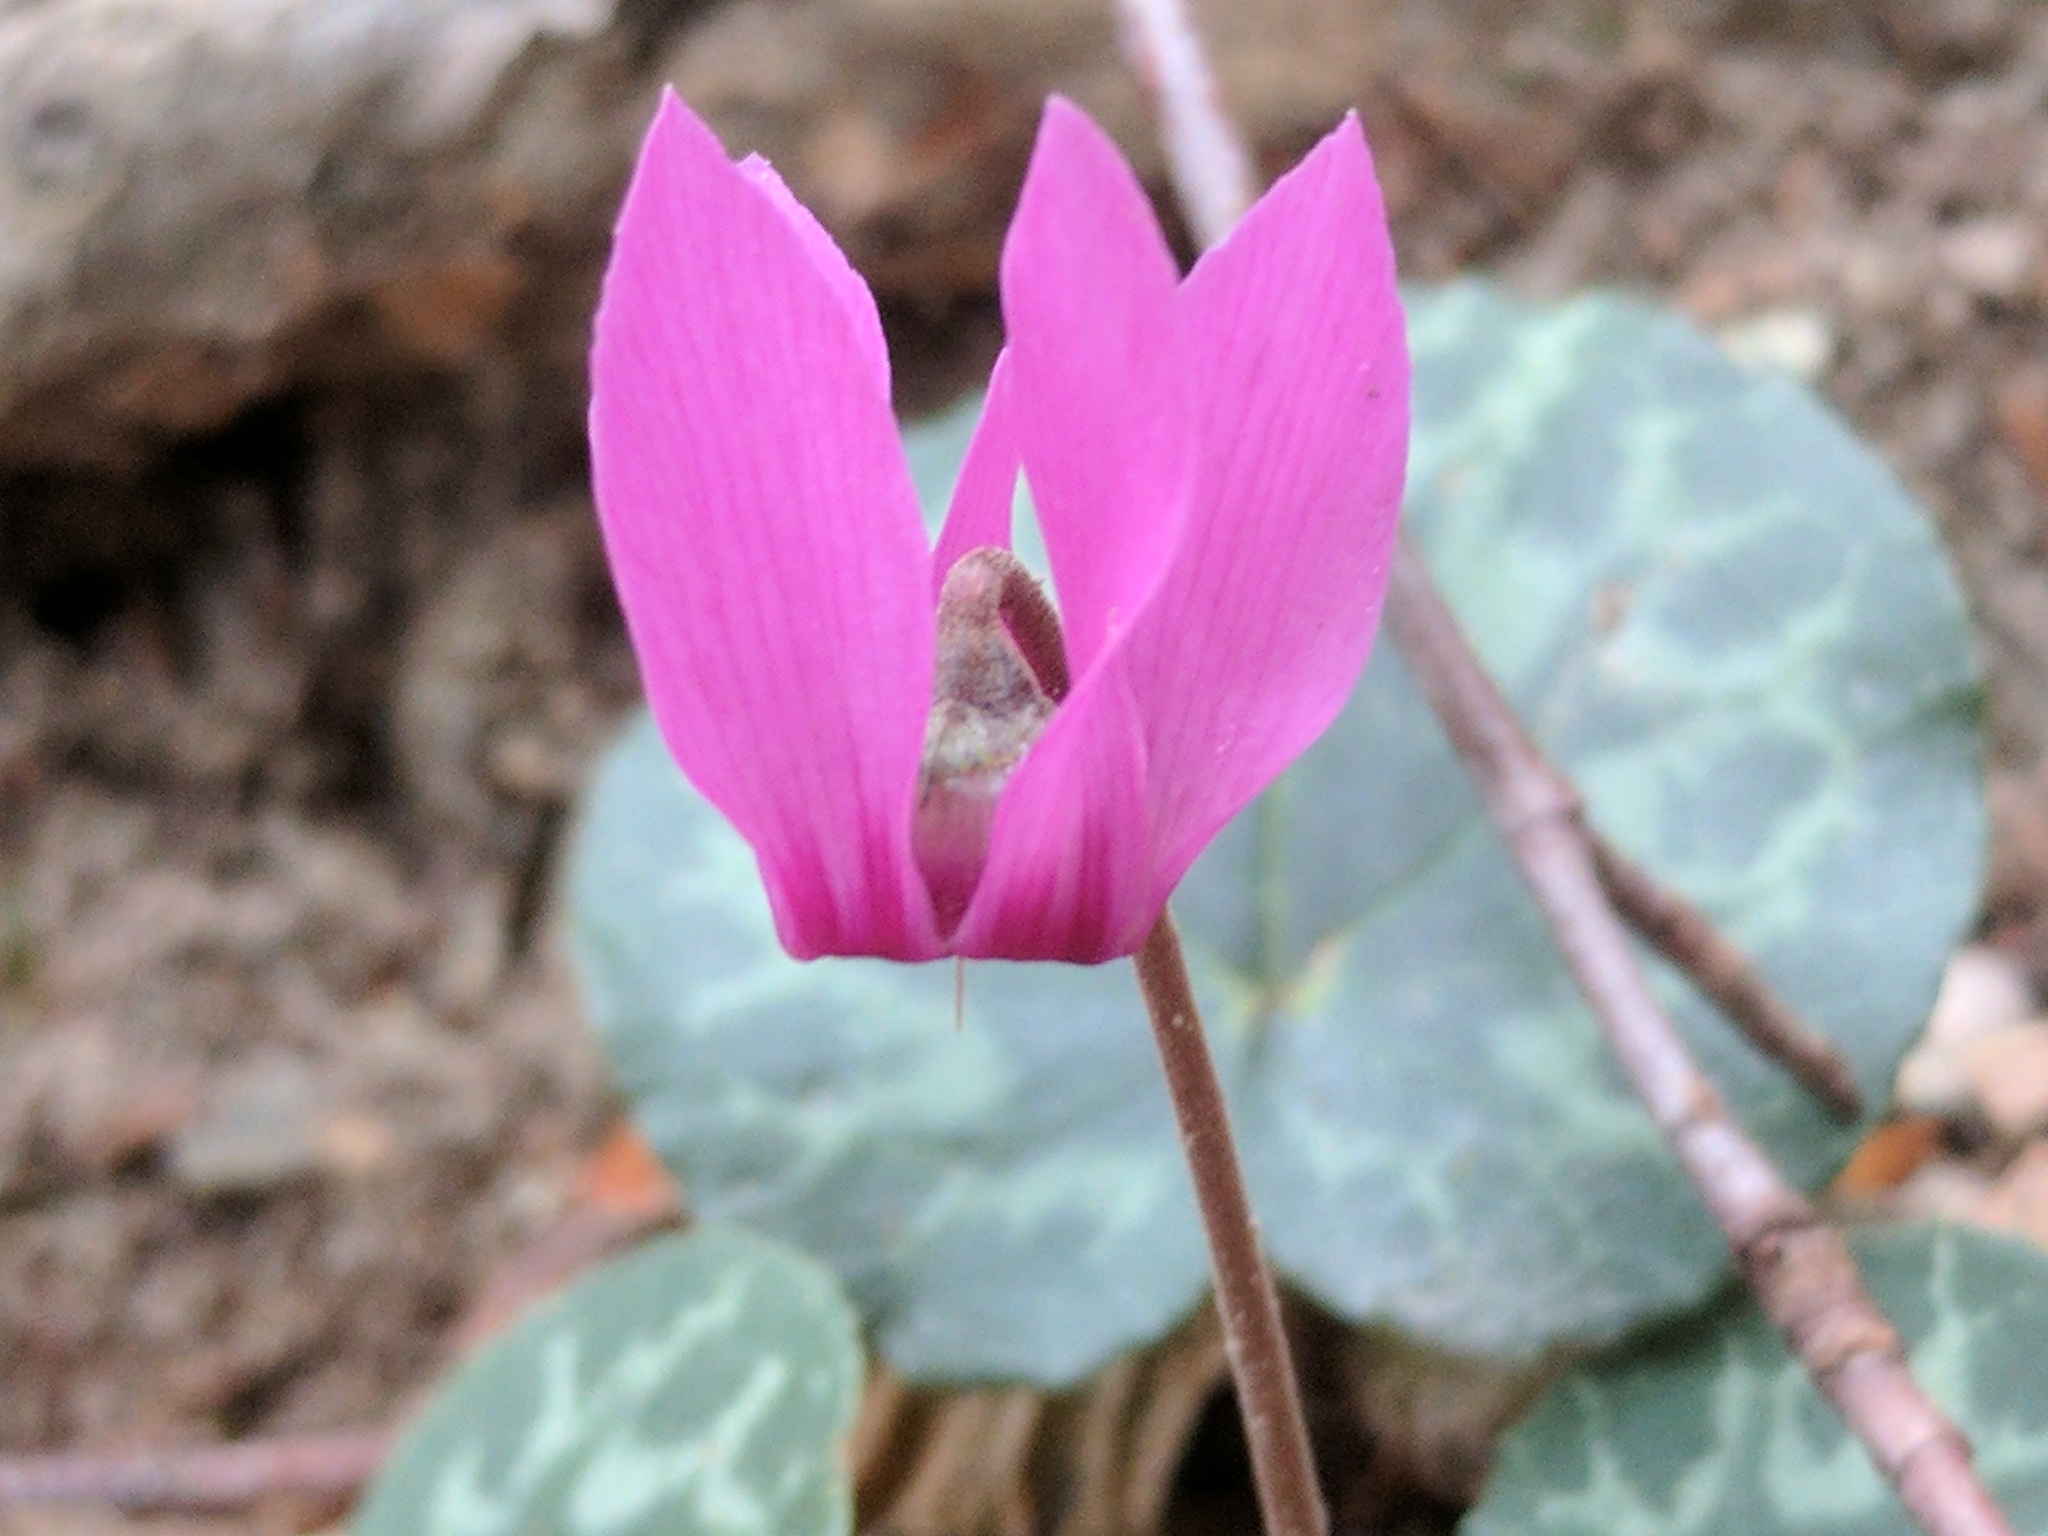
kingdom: Plantae
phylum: Tracheophyta
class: Magnoliopsida
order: Ericales
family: Primulaceae
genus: Cyclamen
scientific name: Cyclamen purpurascens
